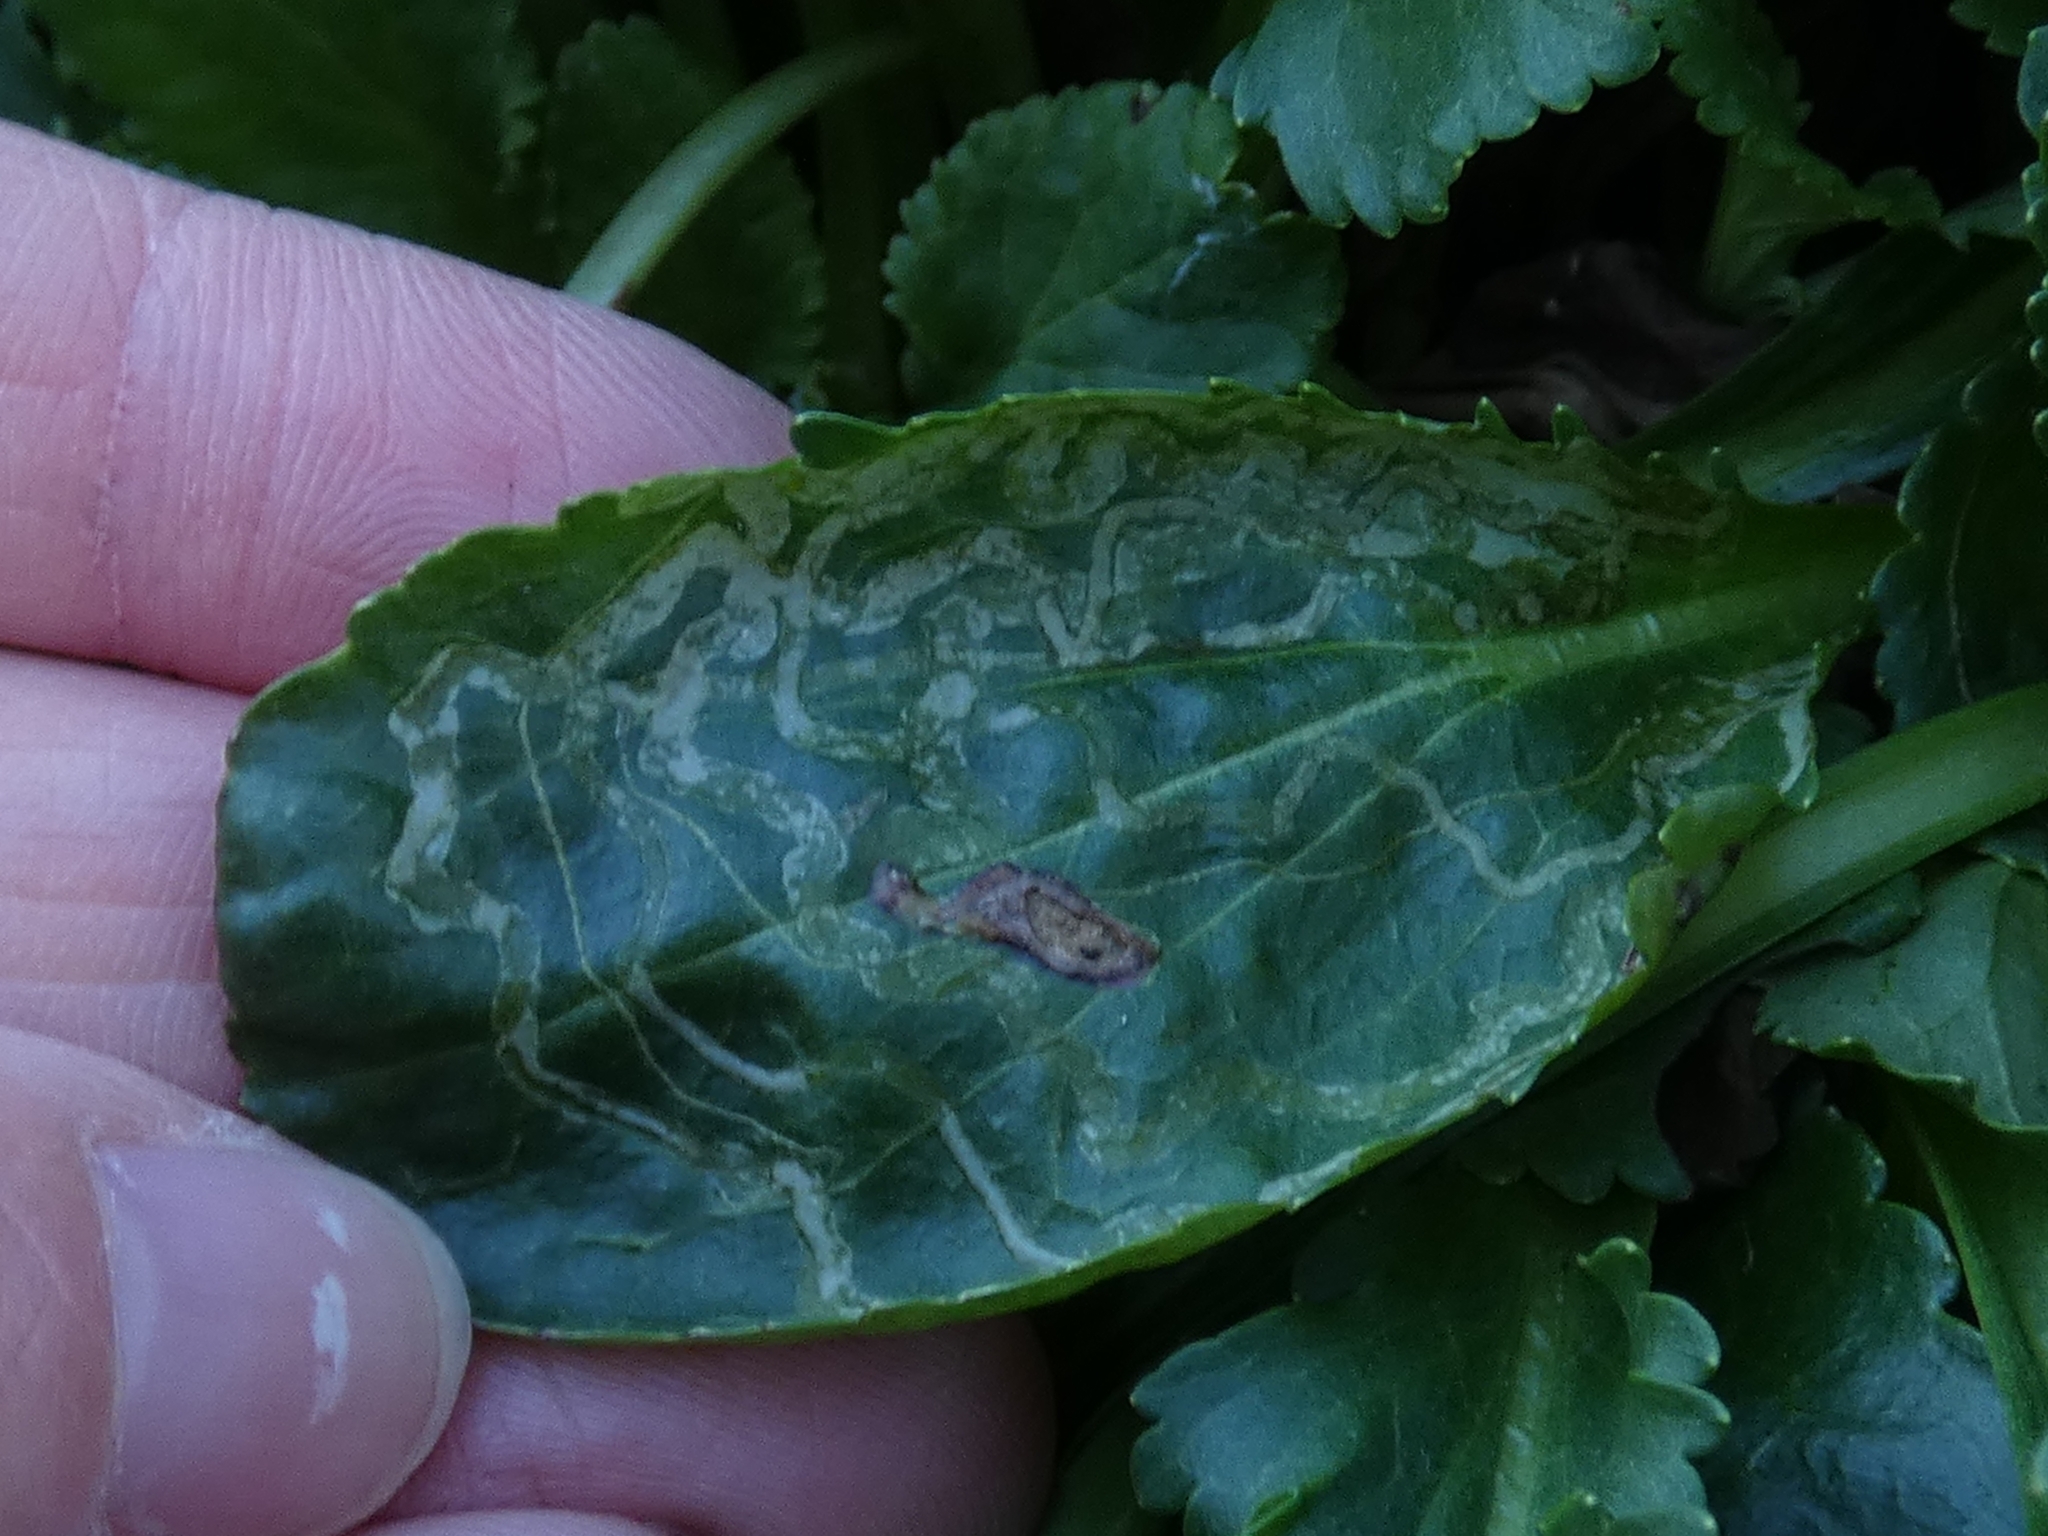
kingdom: Animalia
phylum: Arthropoda
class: Insecta
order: Lepidoptera
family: Gracillariidae
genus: Phyllocnistis
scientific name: Phyllocnistis insignis
